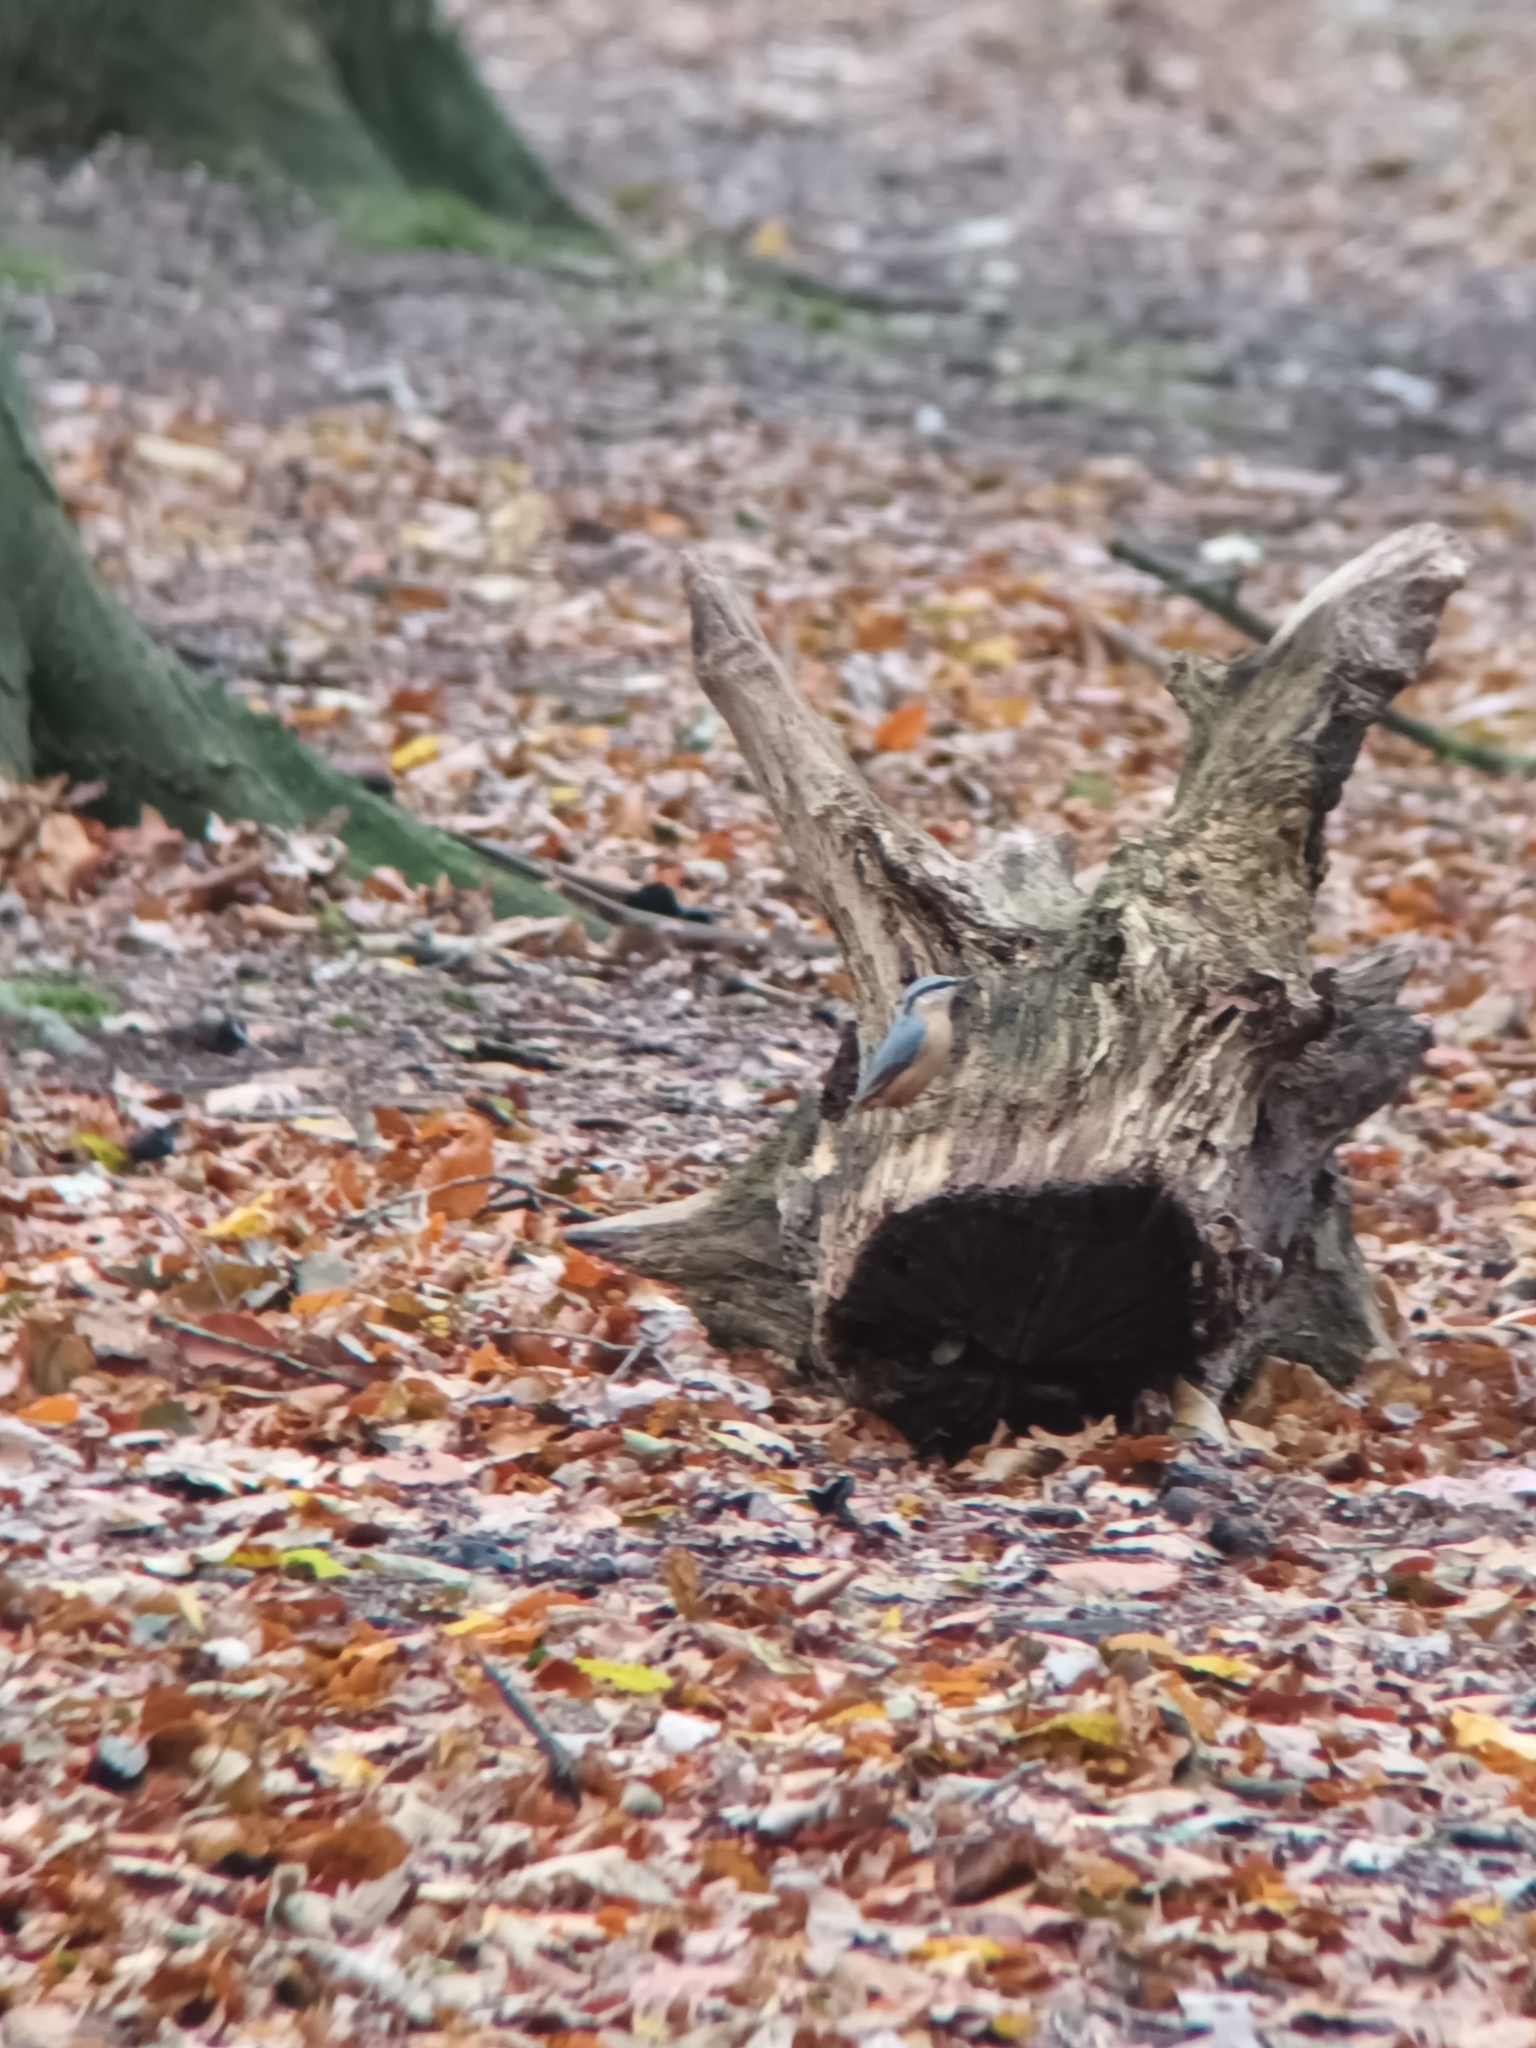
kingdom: Animalia
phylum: Chordata
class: Aves
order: Passeriformes
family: Sittidae
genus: Sitta
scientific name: Sitta europaea
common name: Eurasian nuthatch
